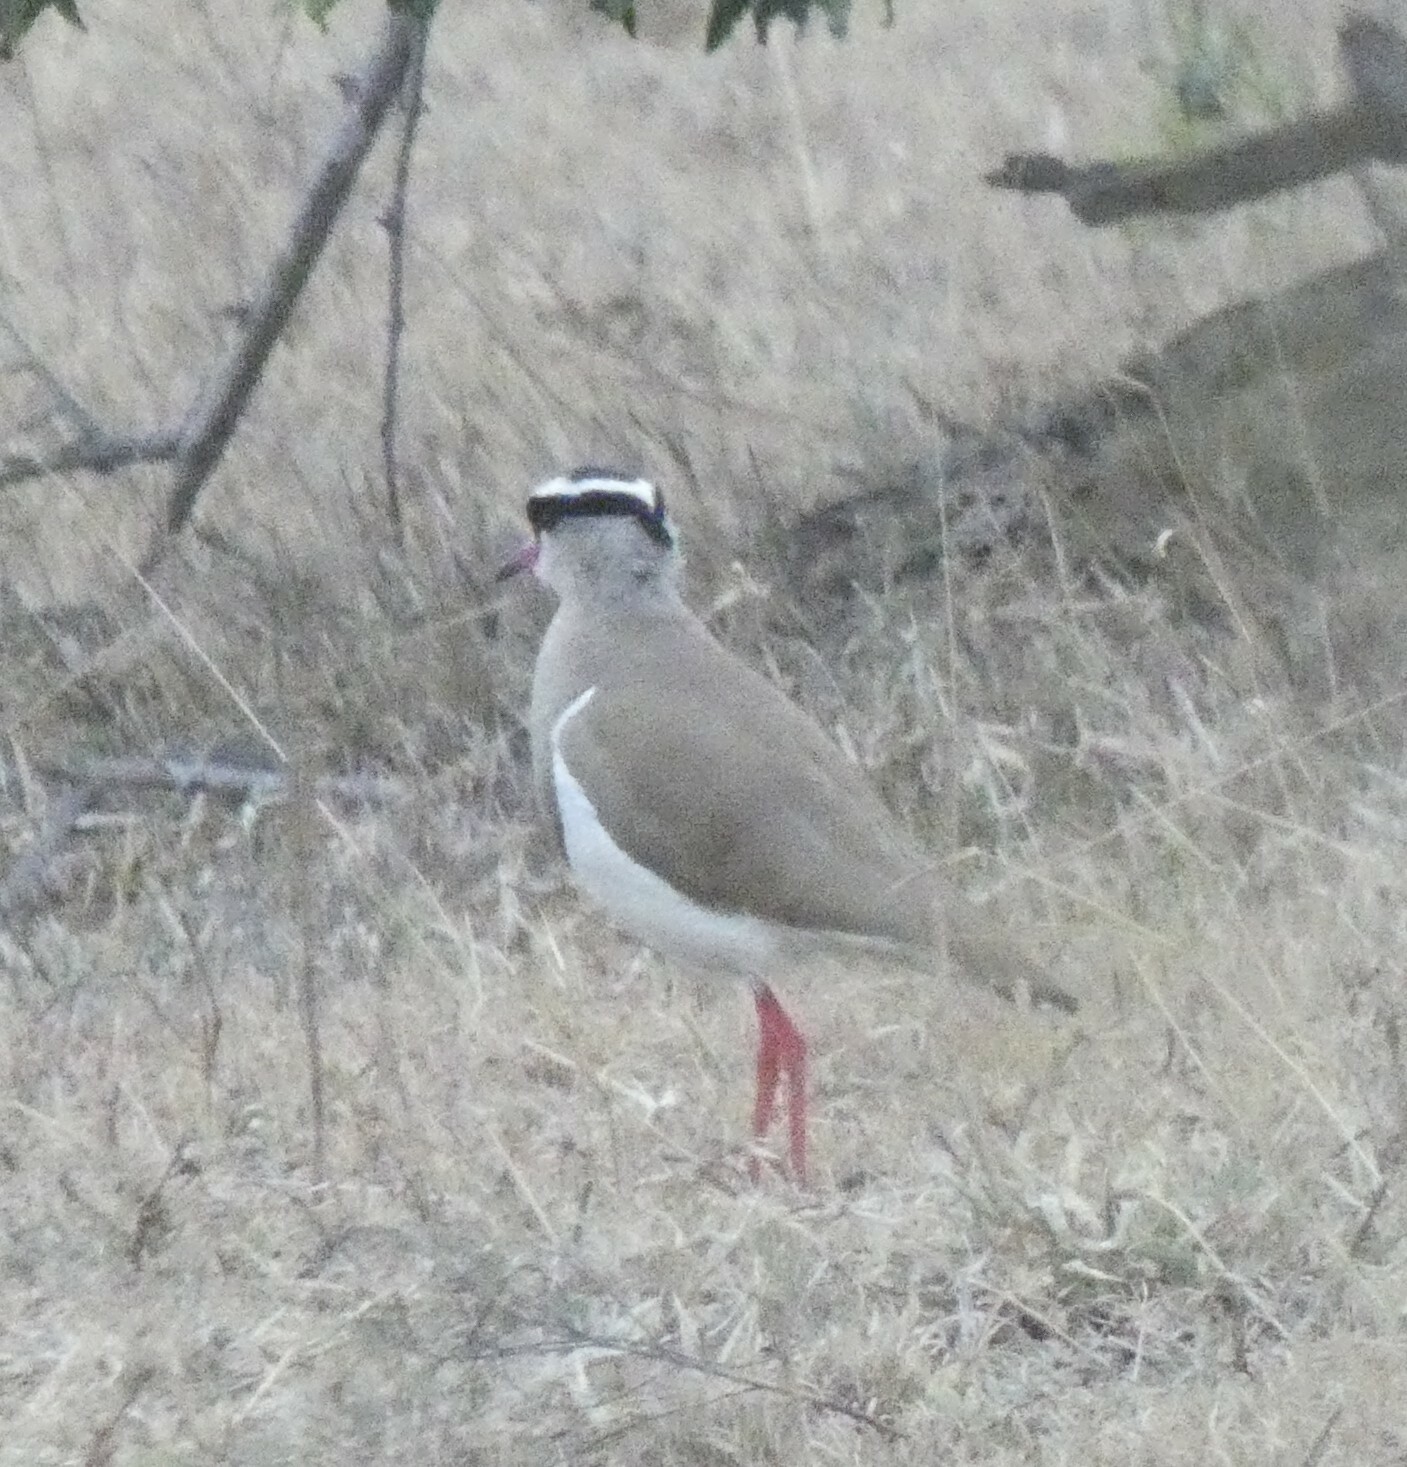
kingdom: Animalia
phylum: Chordata
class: Aves
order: Charadriiformes
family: Charadriidae
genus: Vanellus
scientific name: Vanellus coronatus
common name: Crowned lapwing
